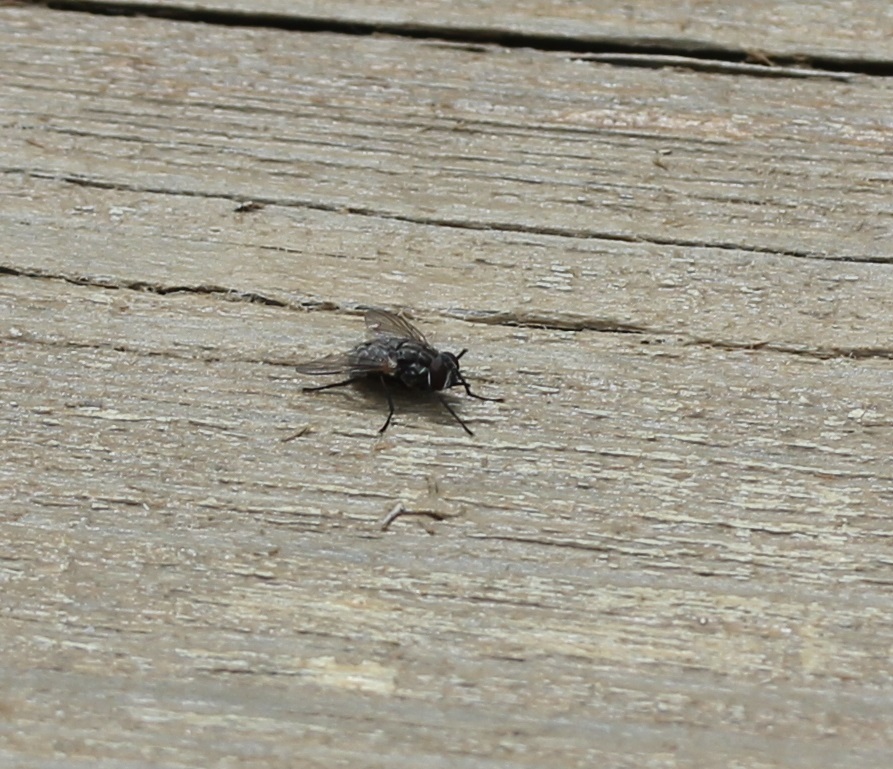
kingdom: Animalia
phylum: Arthropoda
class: Insecta
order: Diptera
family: Muscidae
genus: Stomoxys
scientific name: Stomoxys calcitrans
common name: Stable fly
